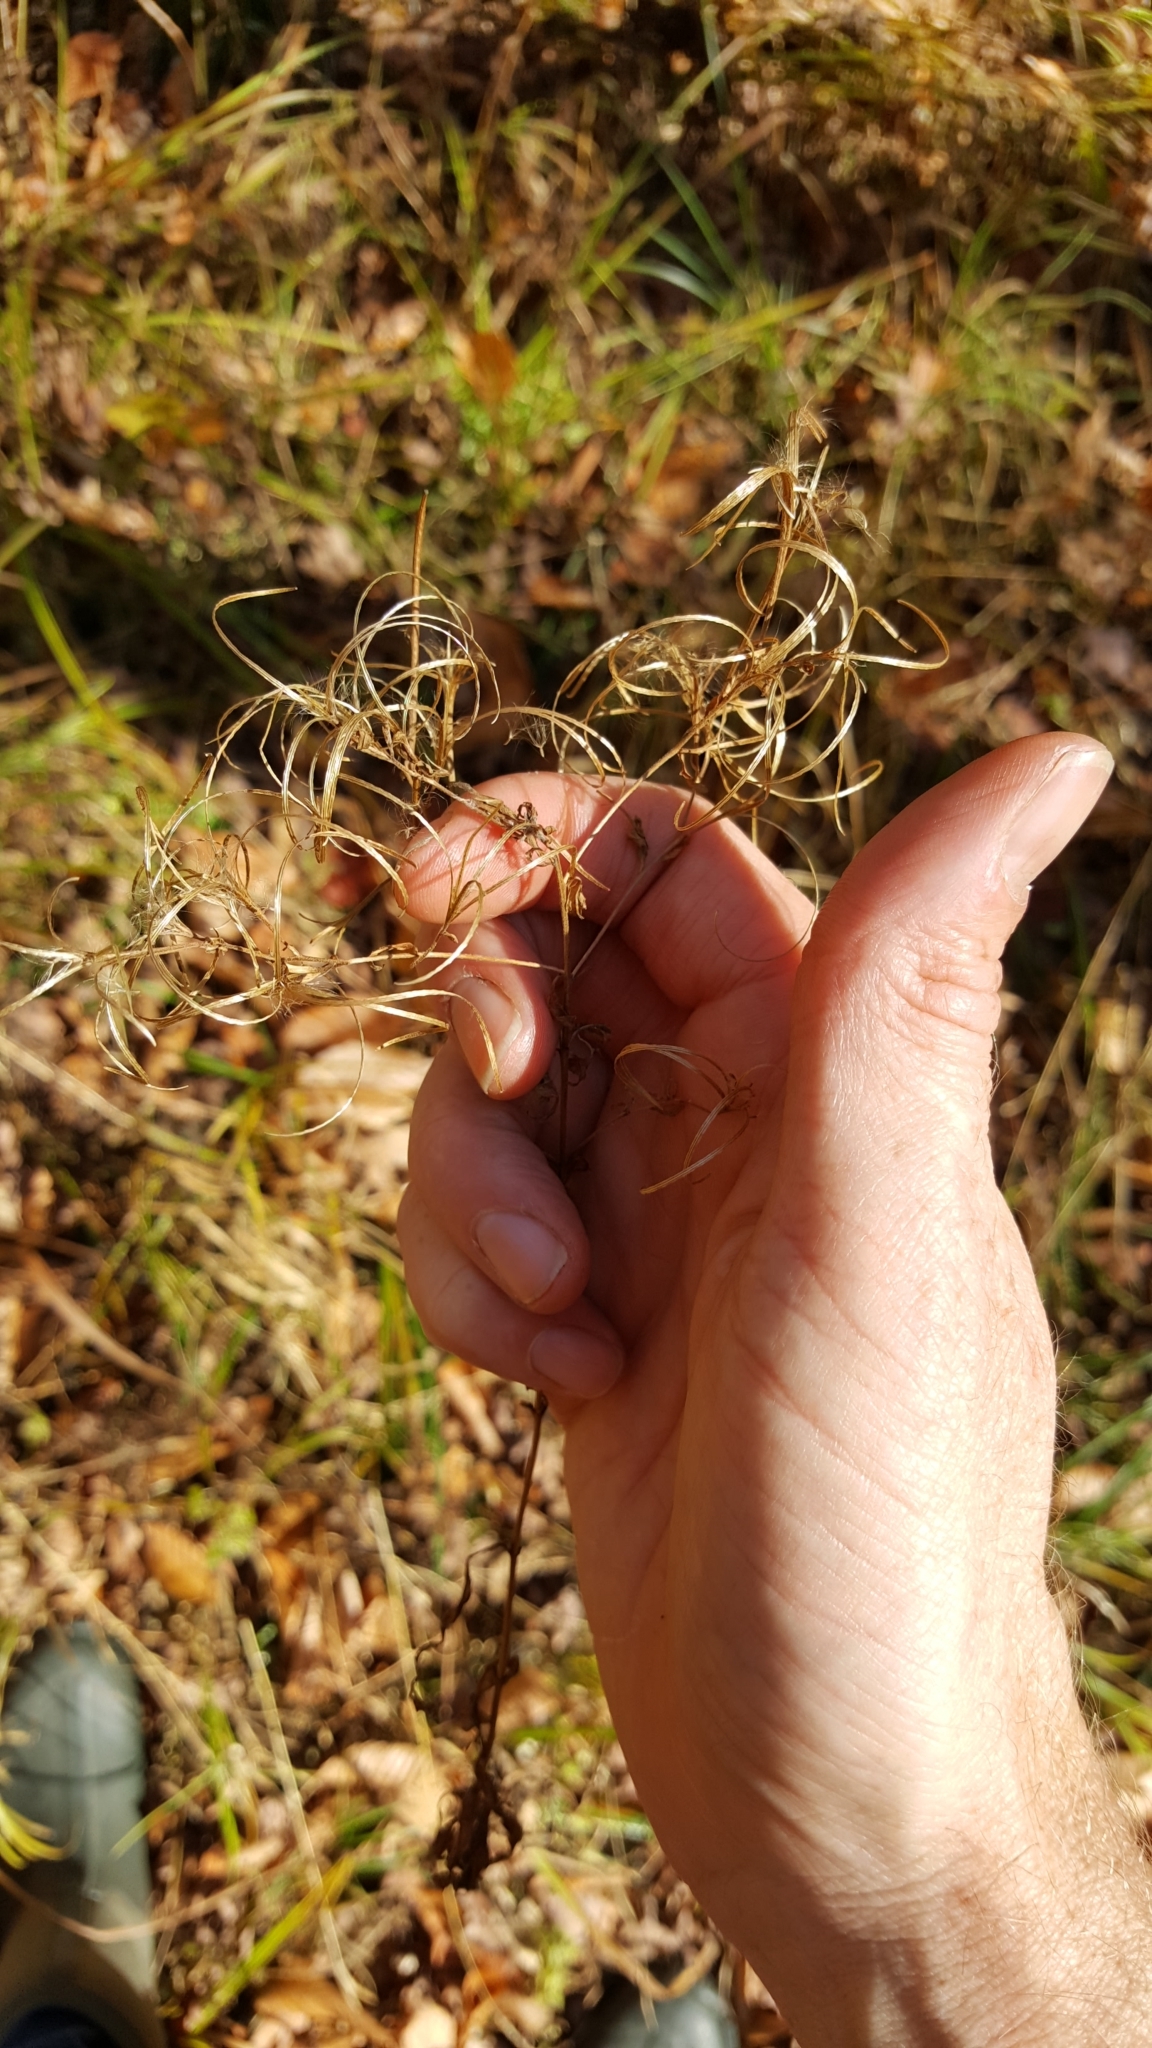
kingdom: Plantae
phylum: Tracheophyta
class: Magnoliopsida
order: Myrtales
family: Onagraceae
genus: Epilobium
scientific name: Epilobium coloratum
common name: Bronze willowherb
